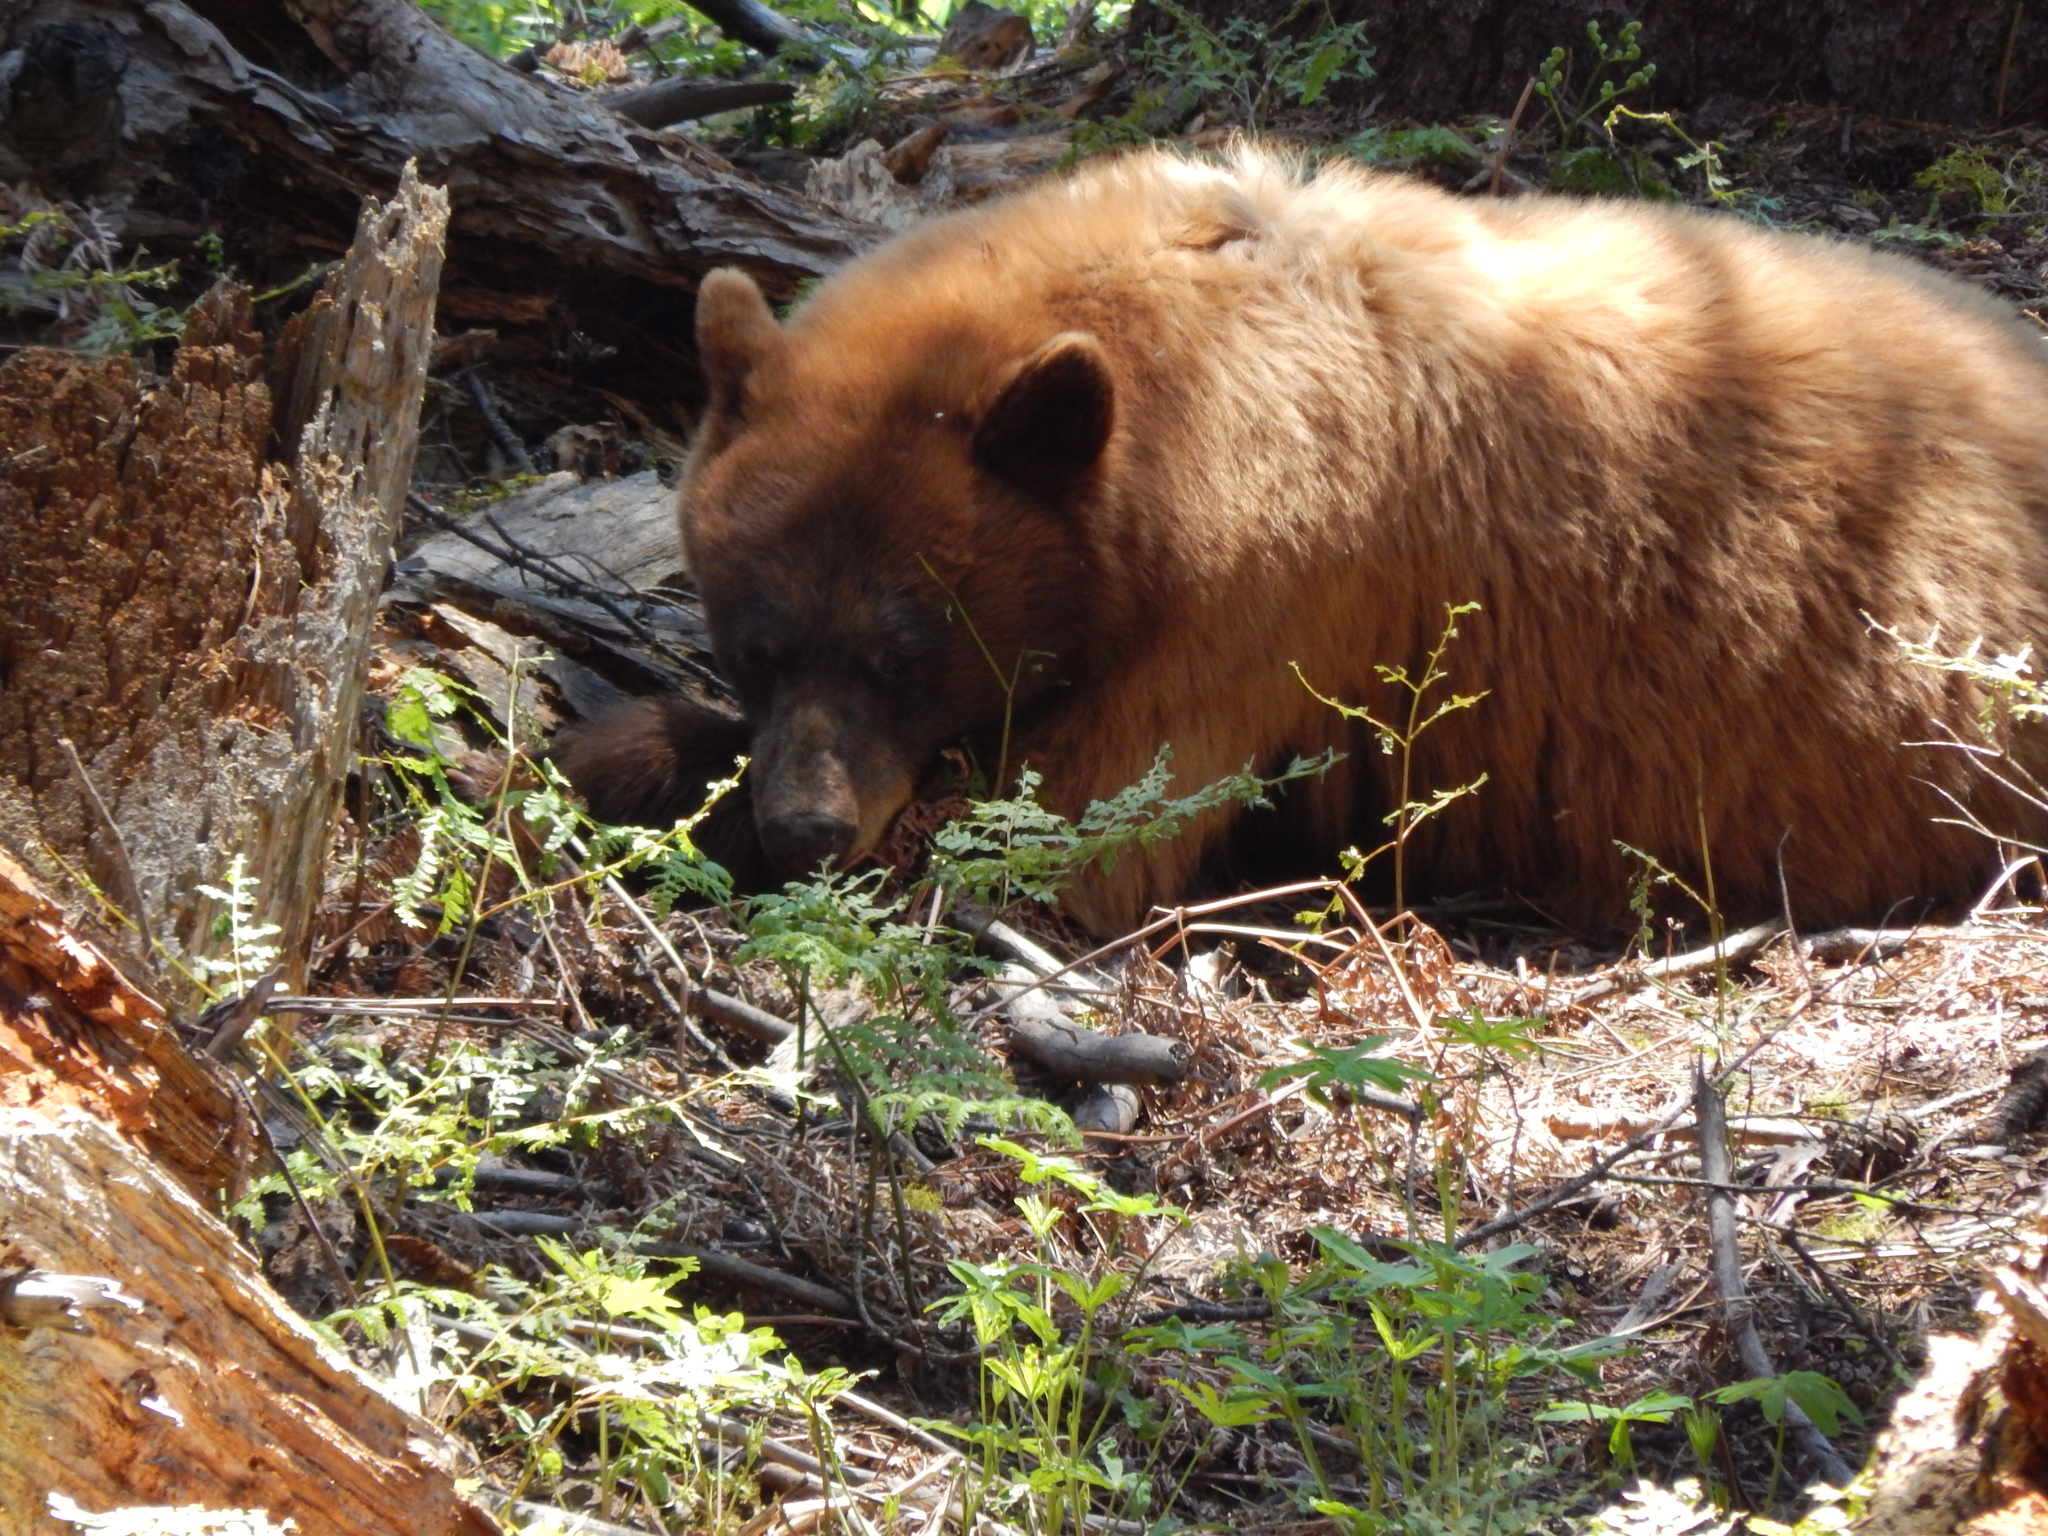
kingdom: Animalia
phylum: Chordata
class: Mammalia
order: Carnivora
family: Ursidae
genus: Ursus
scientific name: Ursus americanus
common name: American black bear
